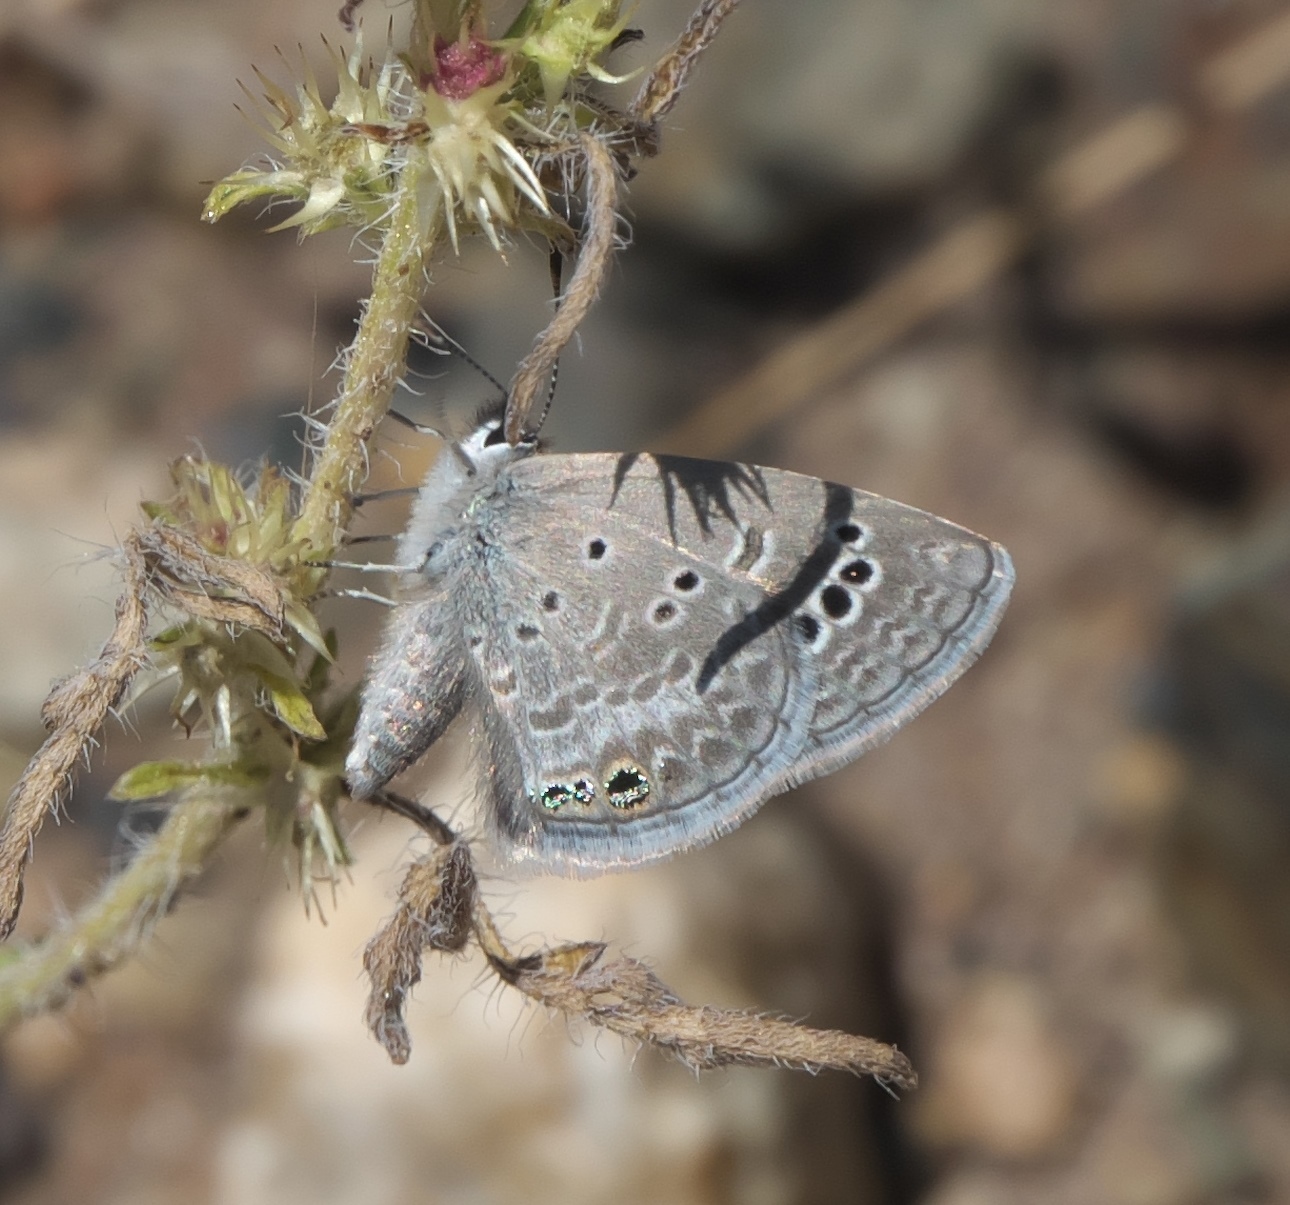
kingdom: Animalia
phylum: Arthropoda
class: Insecta
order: Lepidoptera
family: Lycaenidae
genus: Echinargus
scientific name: Echinargus isola
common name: Reakirt's blue
